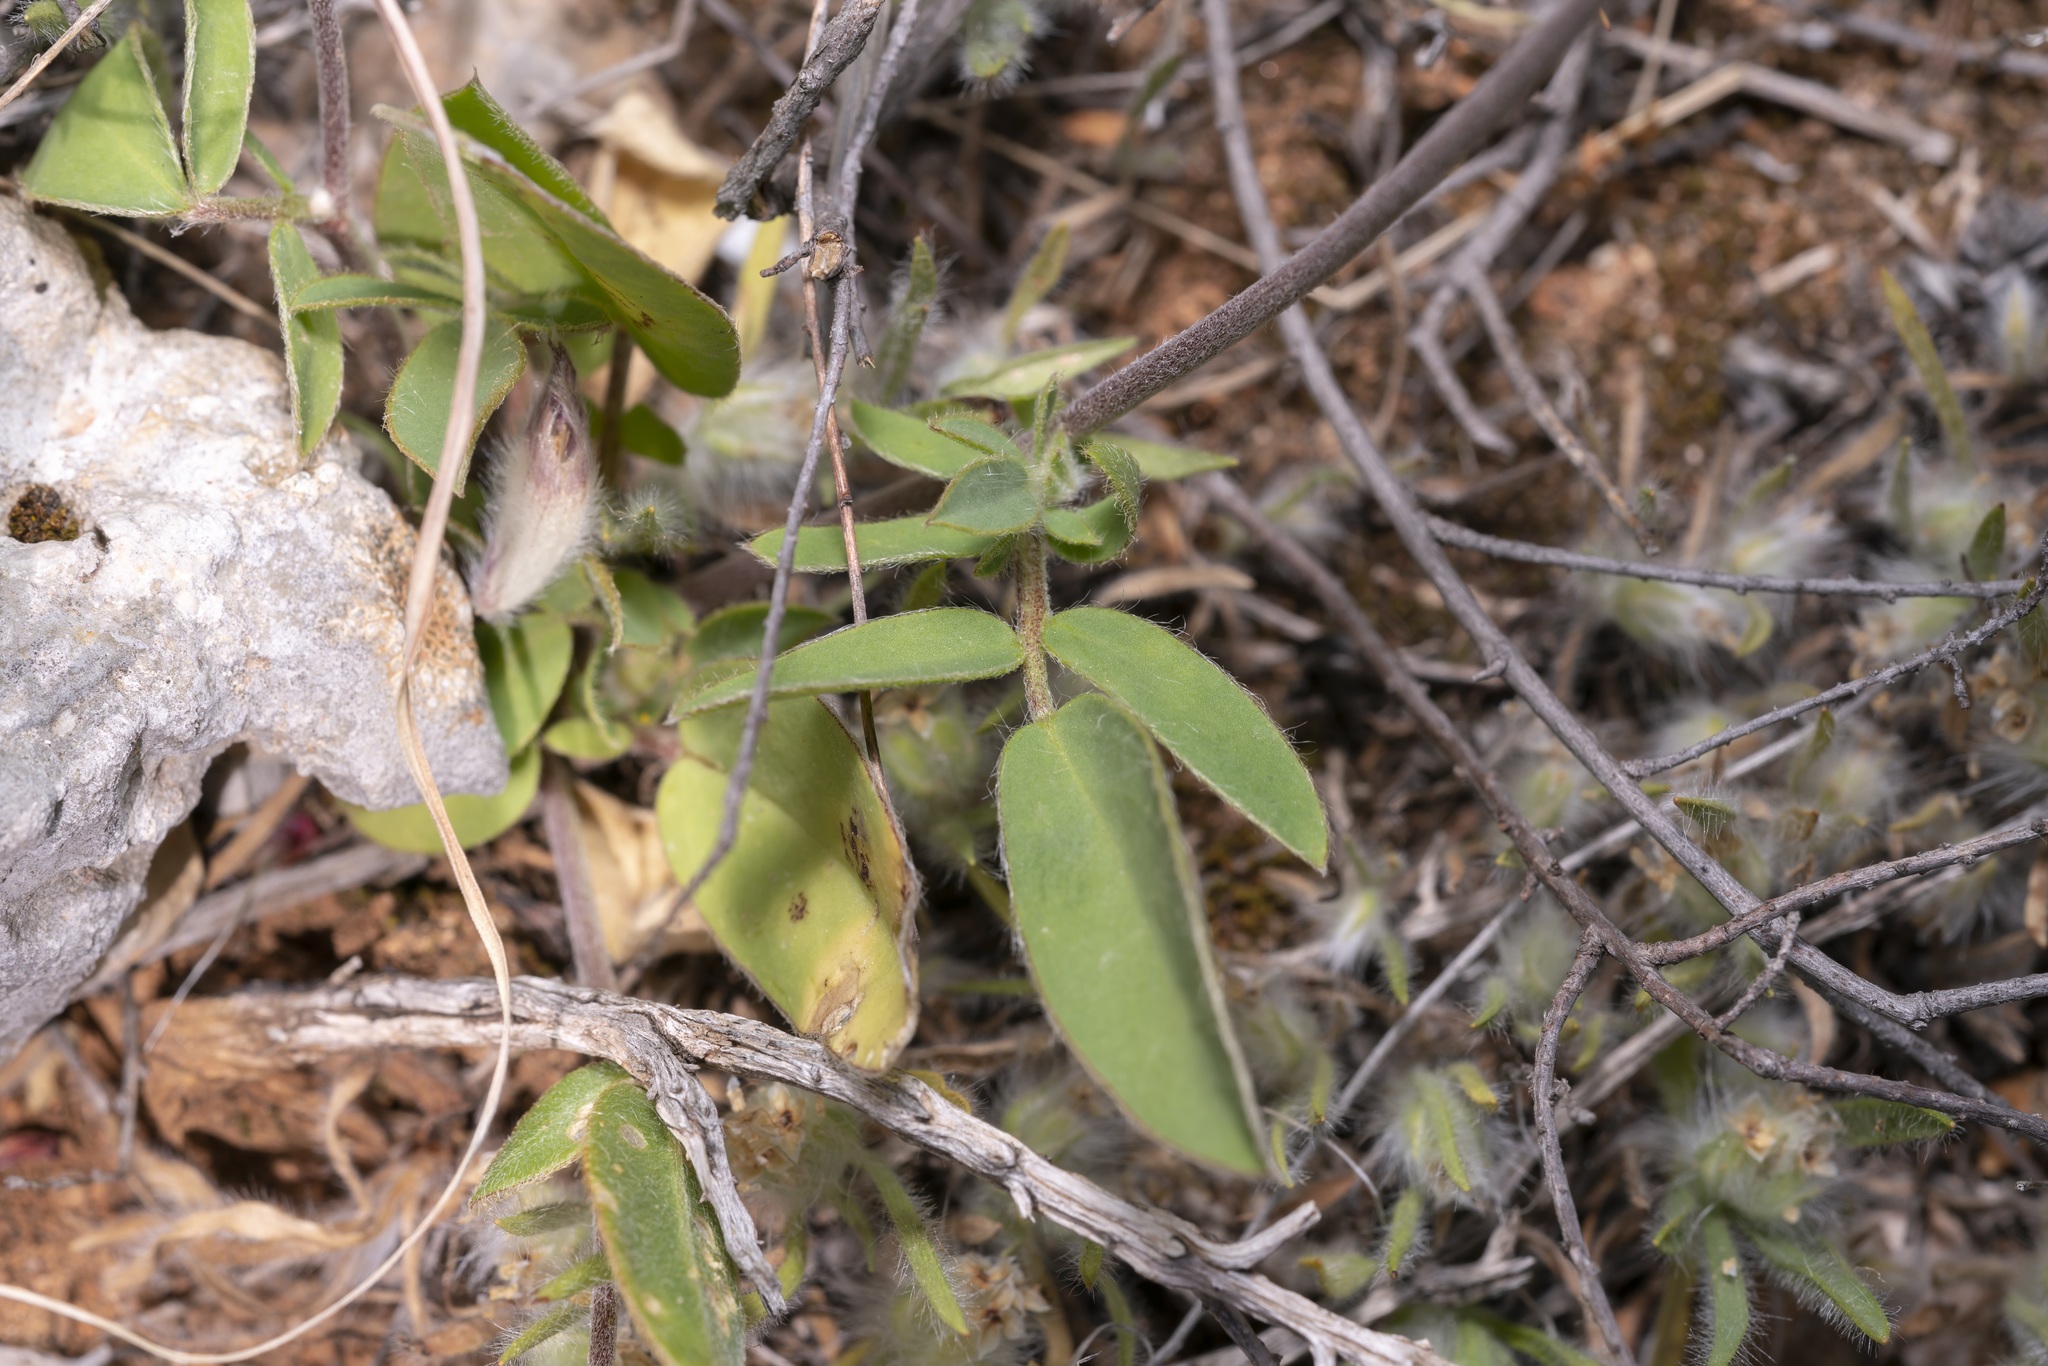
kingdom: Plantae
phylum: Tracheophyta
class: Magnoliopsida
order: Fabales
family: Fabaceae
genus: Anthyllis
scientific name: Anthyllis vulneraria
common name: Kidney vetch
